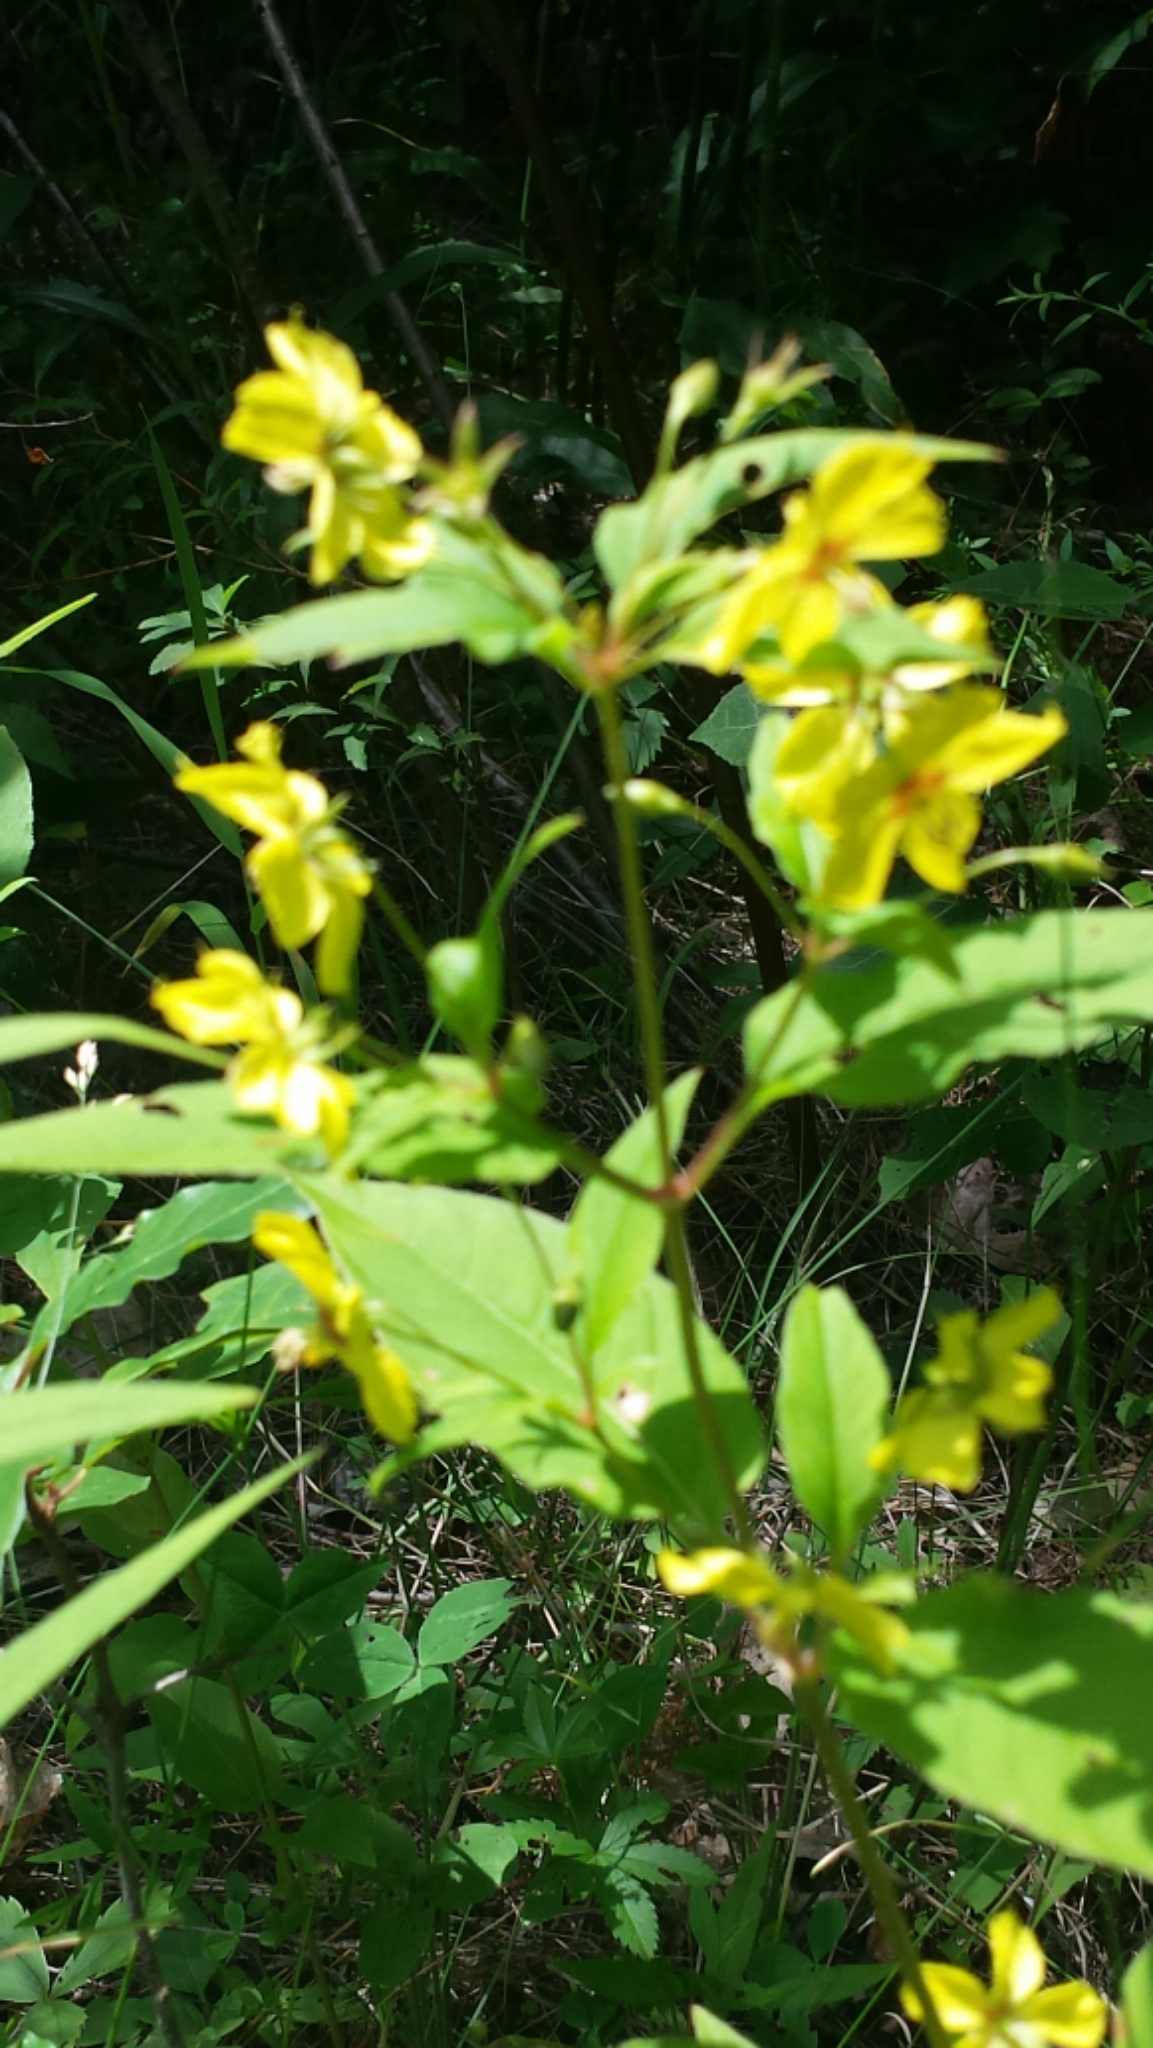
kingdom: Plantae
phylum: Tracheophyta
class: Magnoliopsida
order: Ericales
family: Primulaceae
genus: Lysimachia
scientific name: Lysimachia ciliata
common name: Fringed loosestrife
